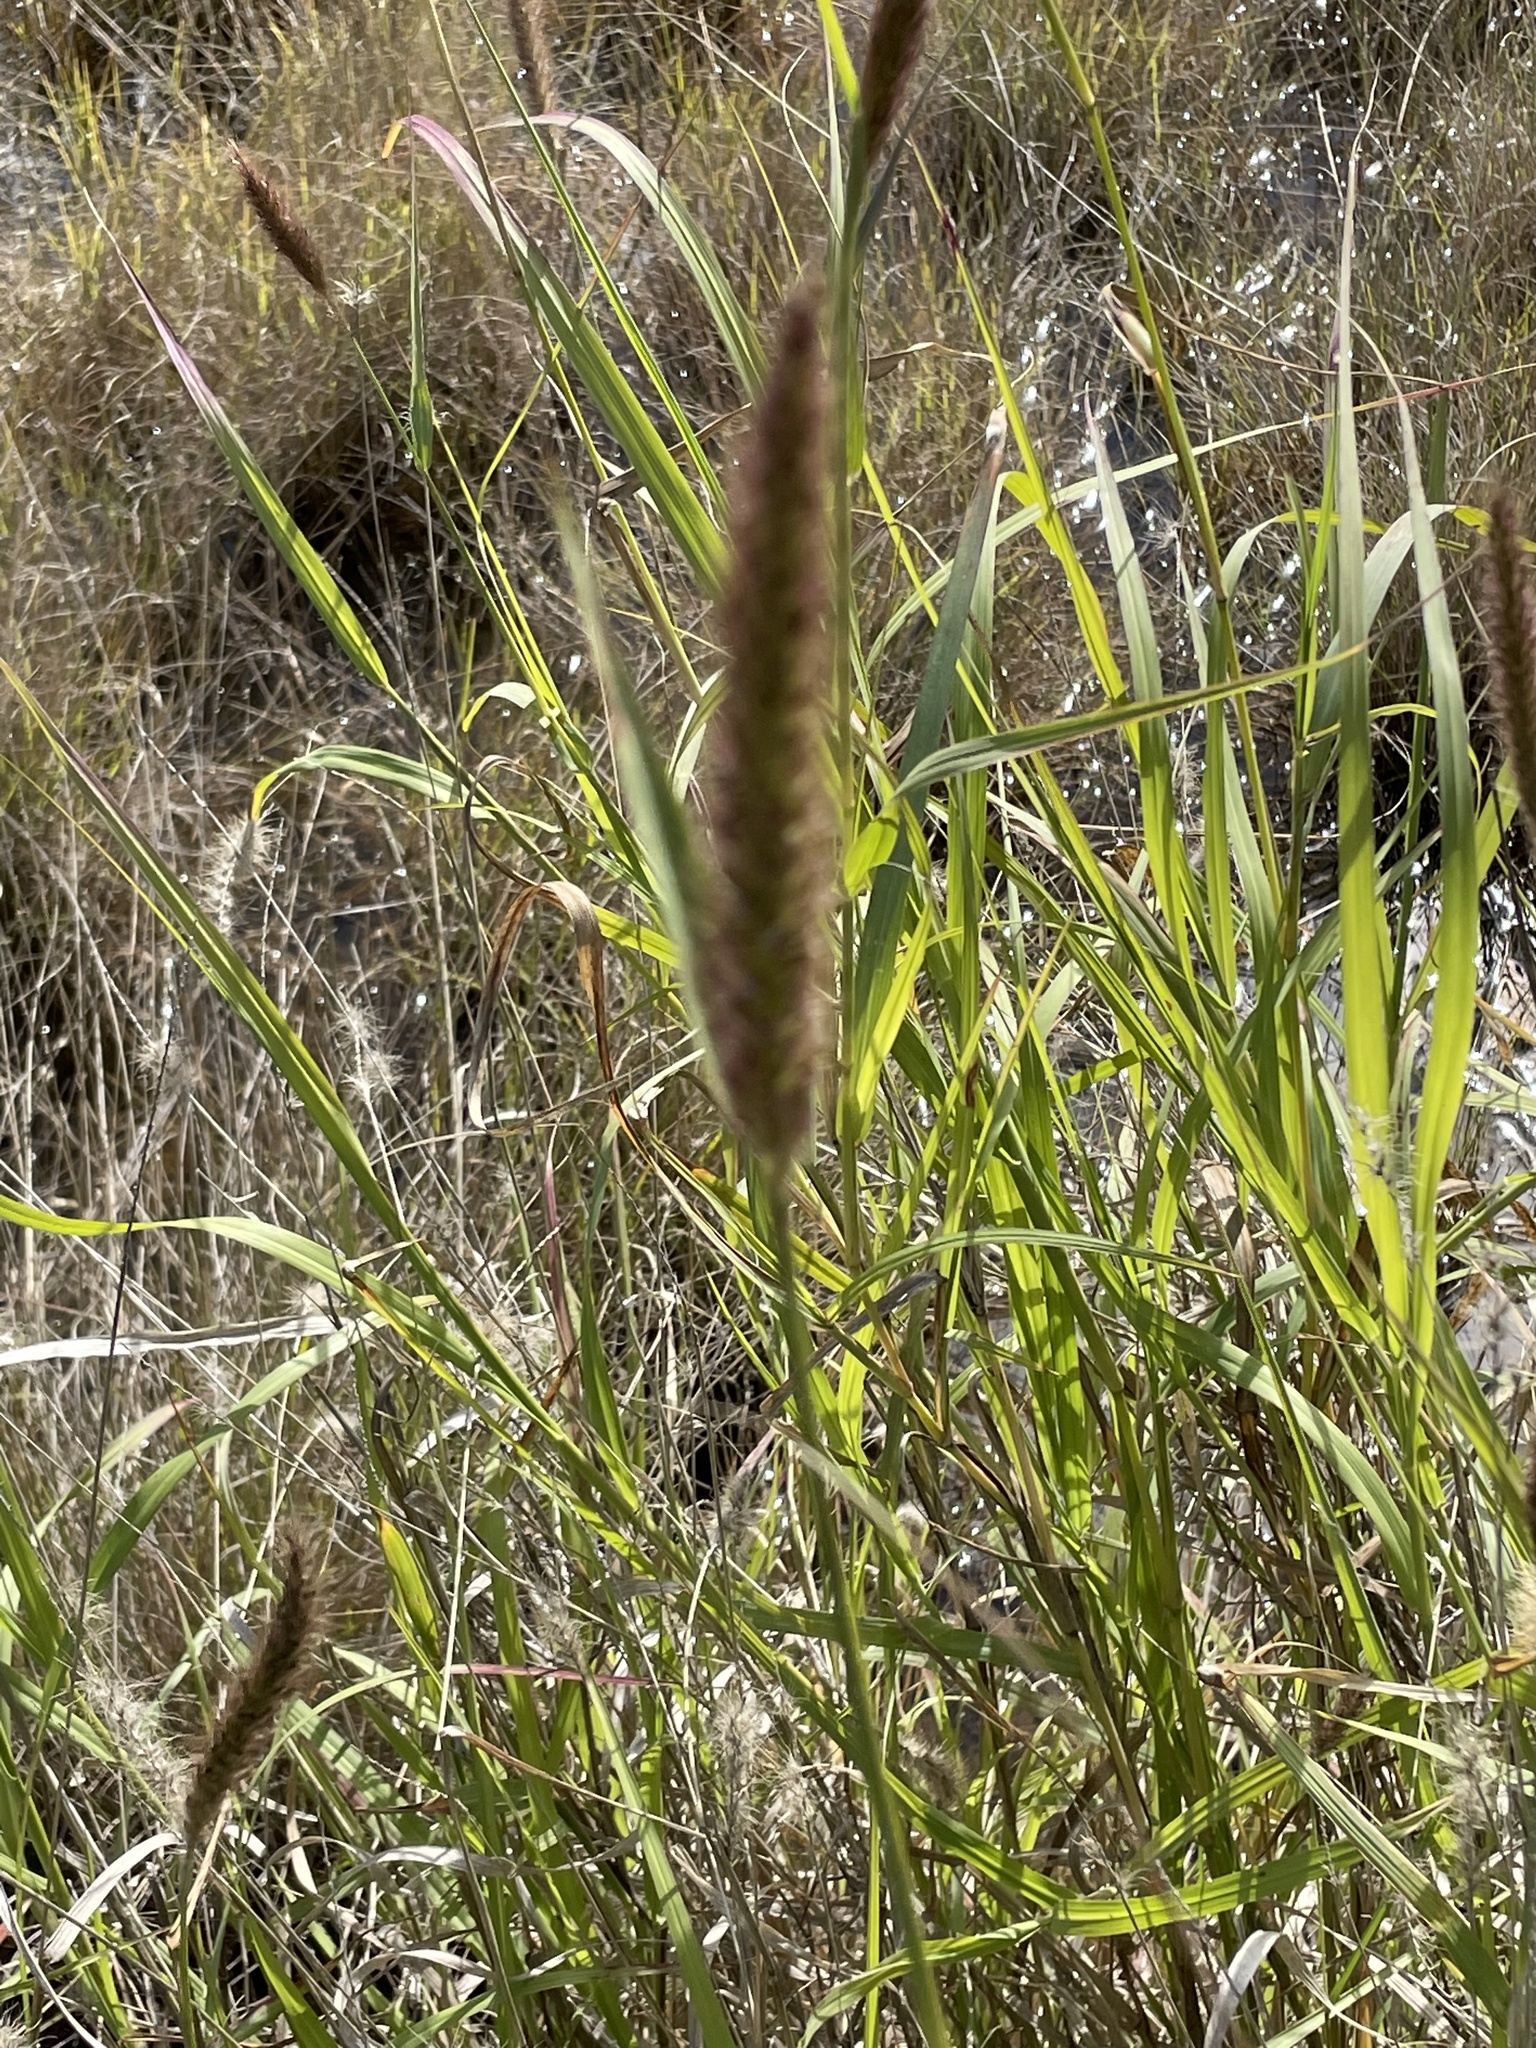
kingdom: Plantae
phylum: Tracheophyta
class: Liliopsida
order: Poales
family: Poaceae
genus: Cenchrus
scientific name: Cenchrus ciliaris
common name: Buffelgrass
